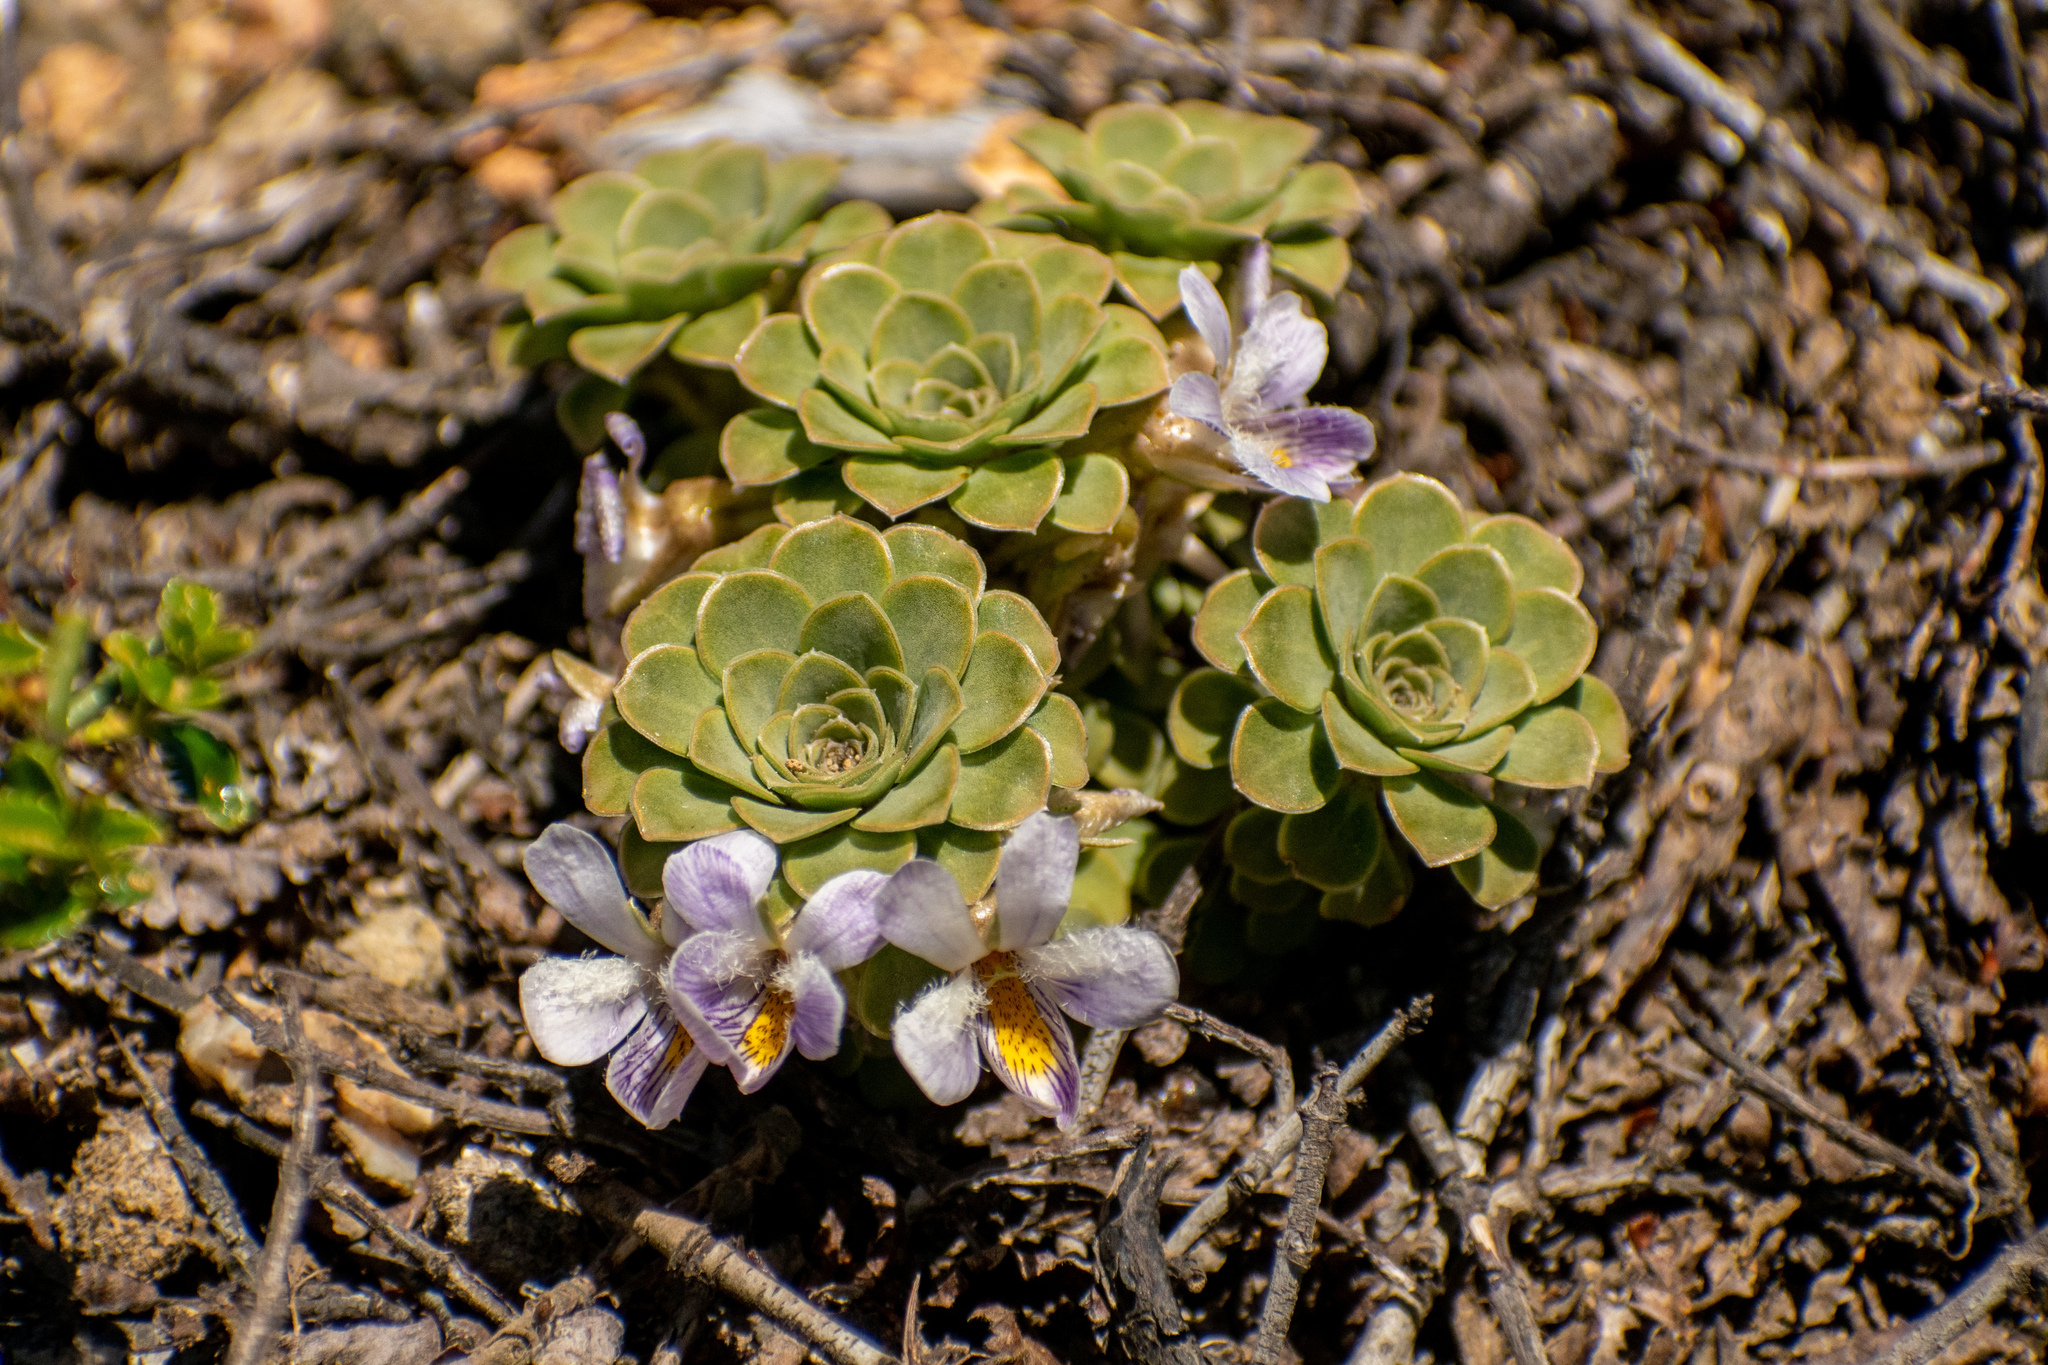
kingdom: Plantae
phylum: Tracheophyta
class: Magnoliopsida
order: Malpighiales
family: Violaceae
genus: Viola
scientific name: Viola petraea
